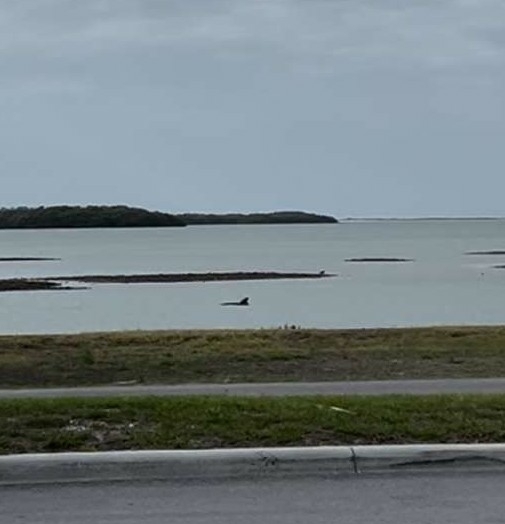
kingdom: Animalia
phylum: Chordata
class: Mammalia
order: Cetacea
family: Delphinidae
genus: Tursiops
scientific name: Tursiops truncatus
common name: Bottlenose dolphin
